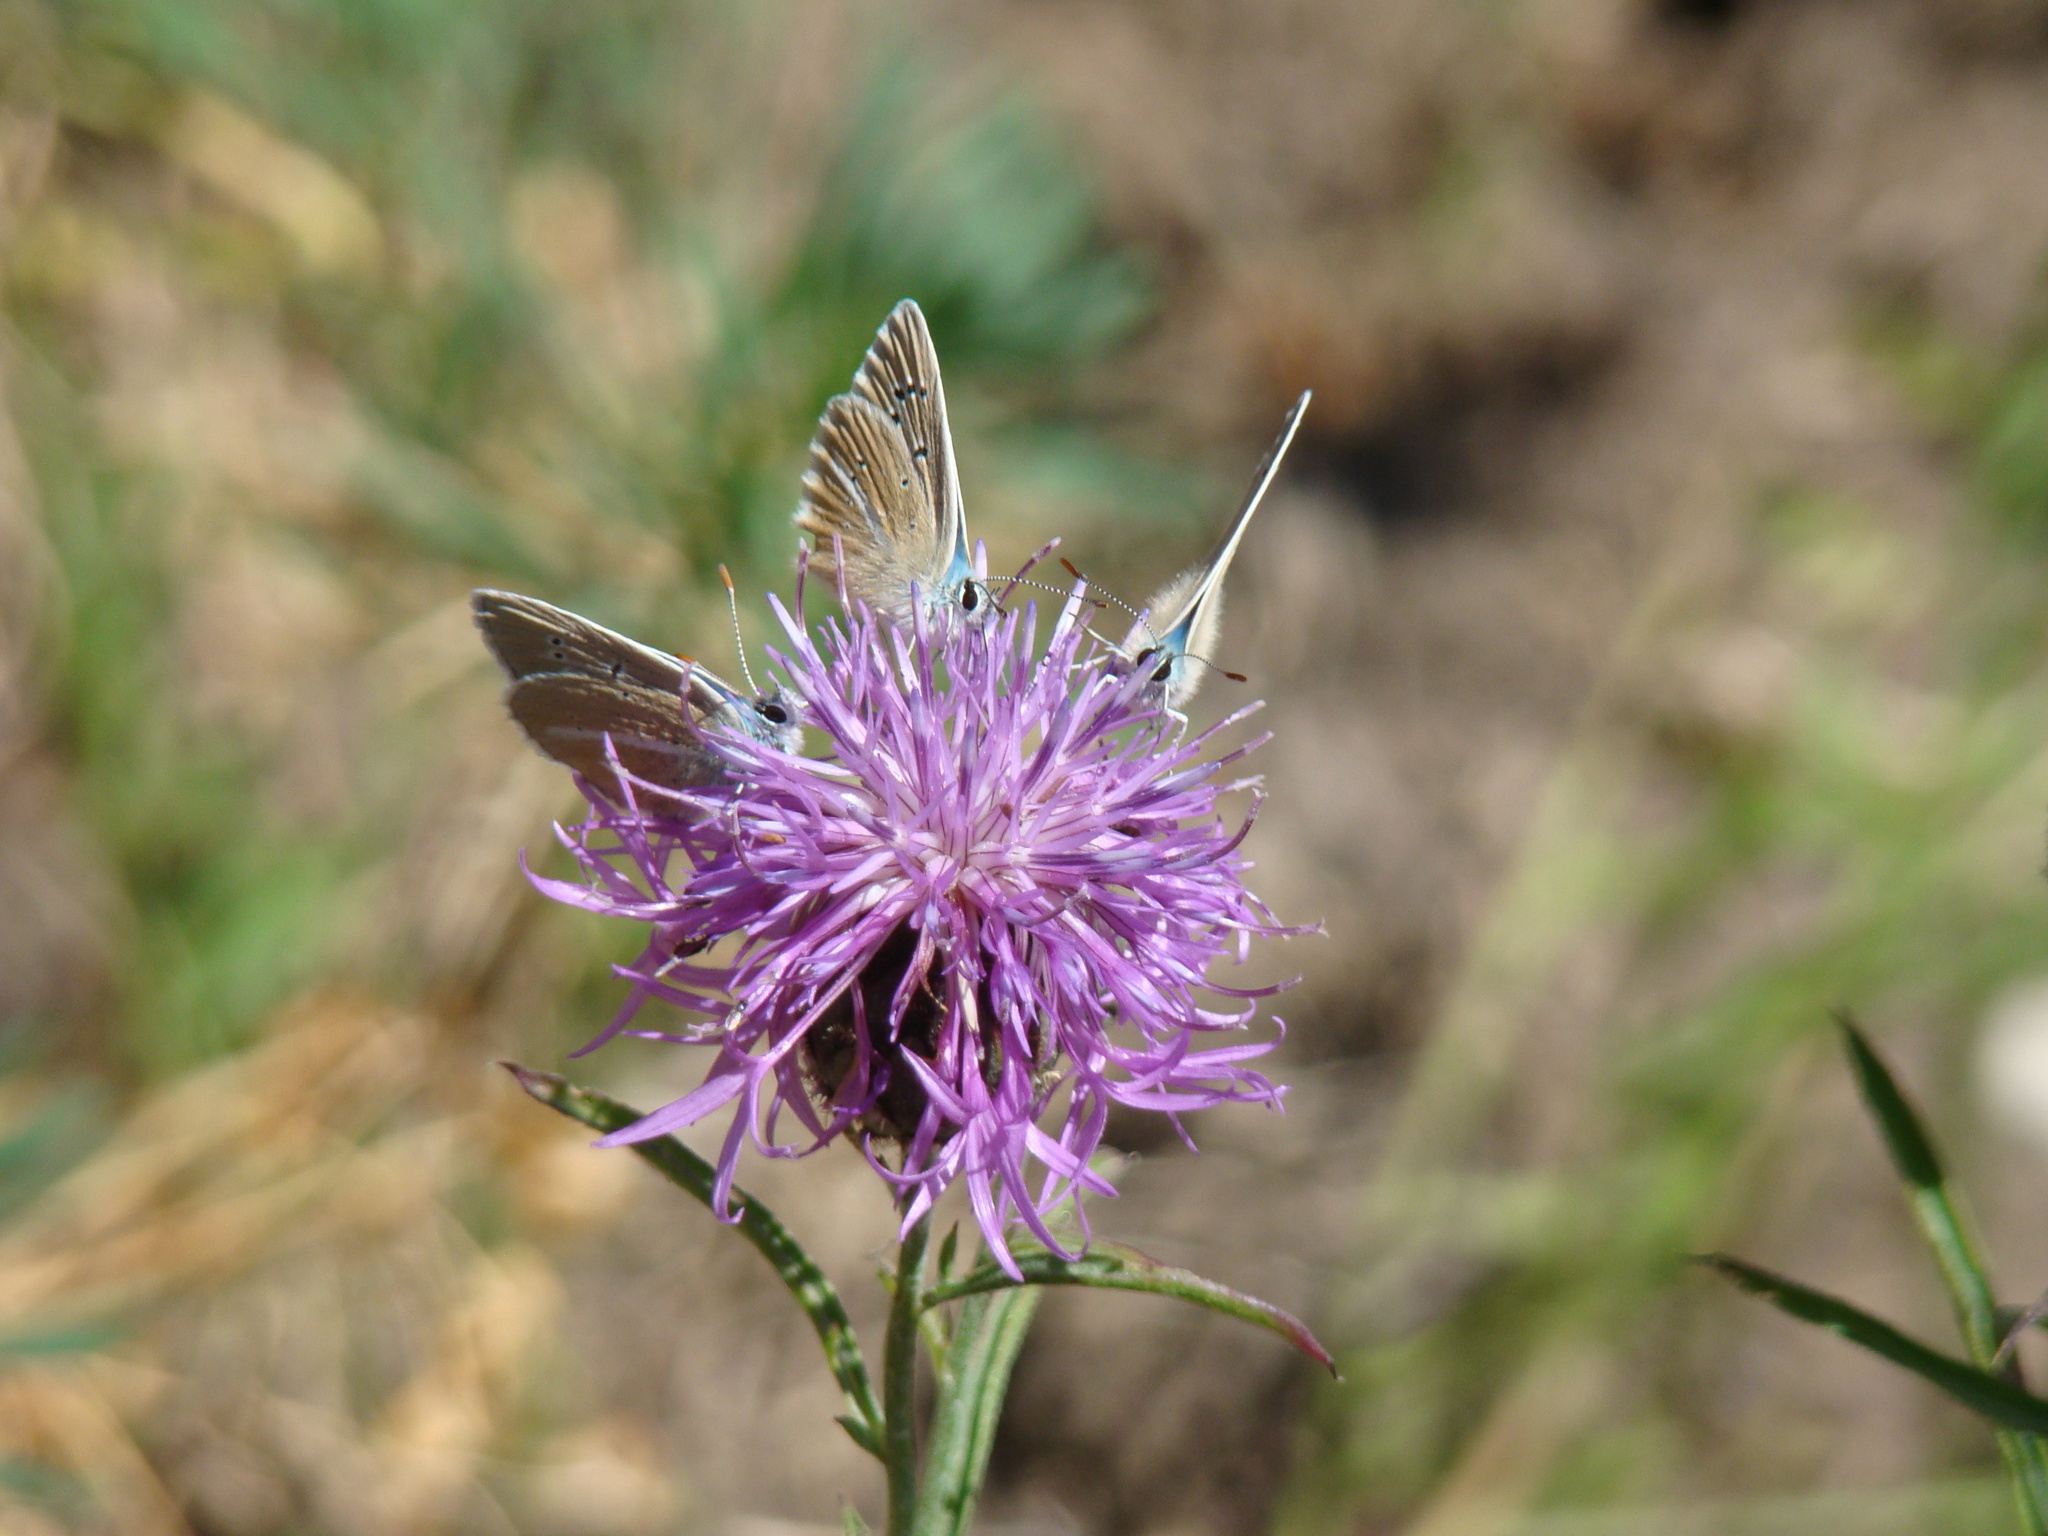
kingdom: Animalia
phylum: Arthropoda
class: Insecta
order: Lepidoptera
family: Lycaenidae
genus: Agrodiaetus
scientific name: Agrodiaetus damon
